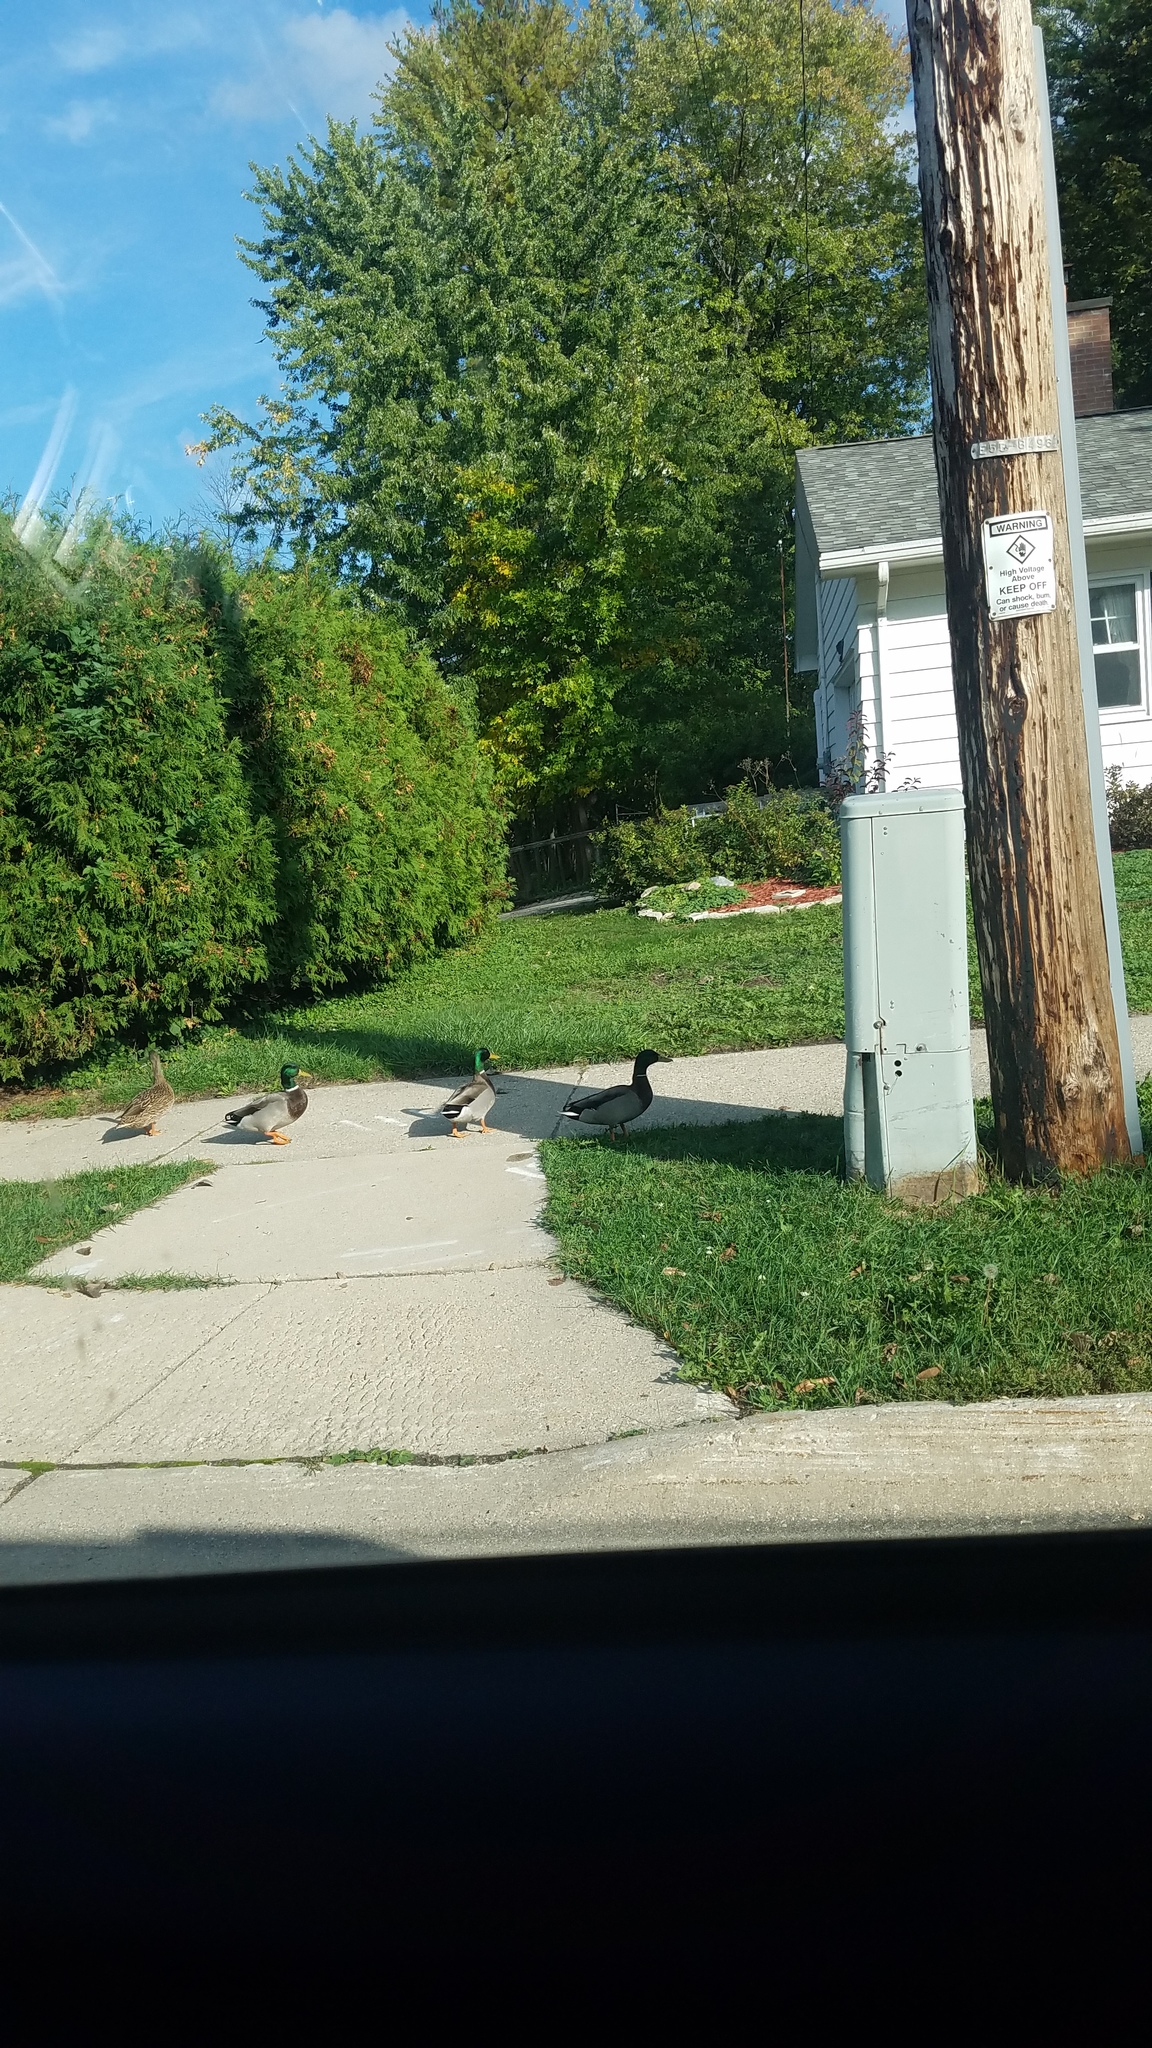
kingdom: Animalia
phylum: Chordata
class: Aves
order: Anseriformes
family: Anatidae
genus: Anas
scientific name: Anas platyrhynchos
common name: Mallard
